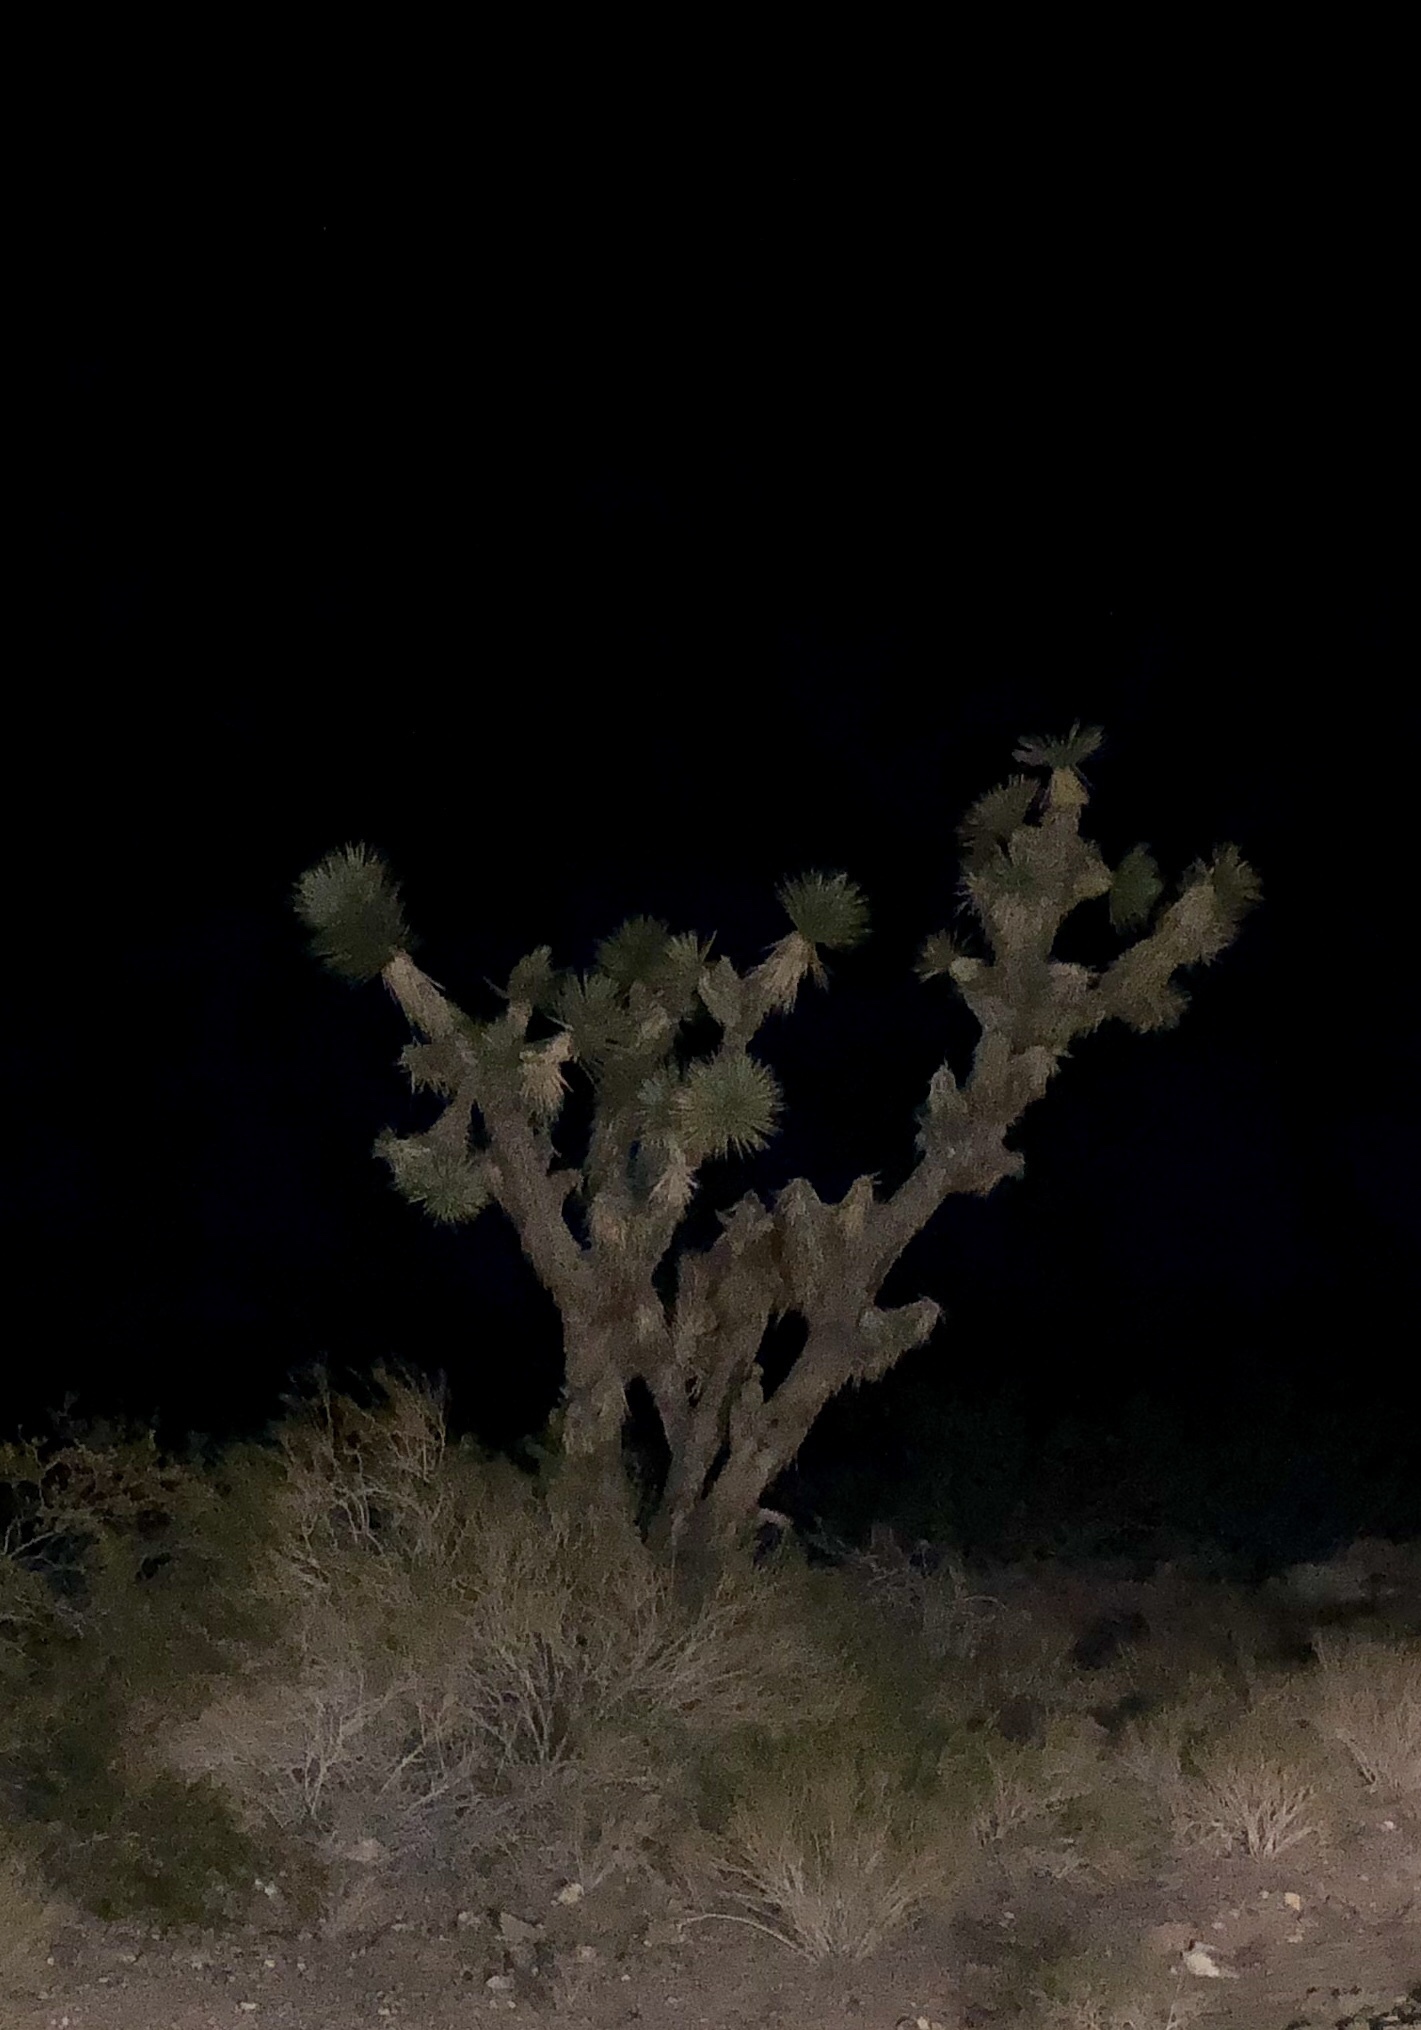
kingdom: Plantae
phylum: Tracheophyta
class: Liliopsida
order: Asparagales
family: Asparagaceae
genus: Yucca
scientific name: Yucca brevifolia
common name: Joshua tree
